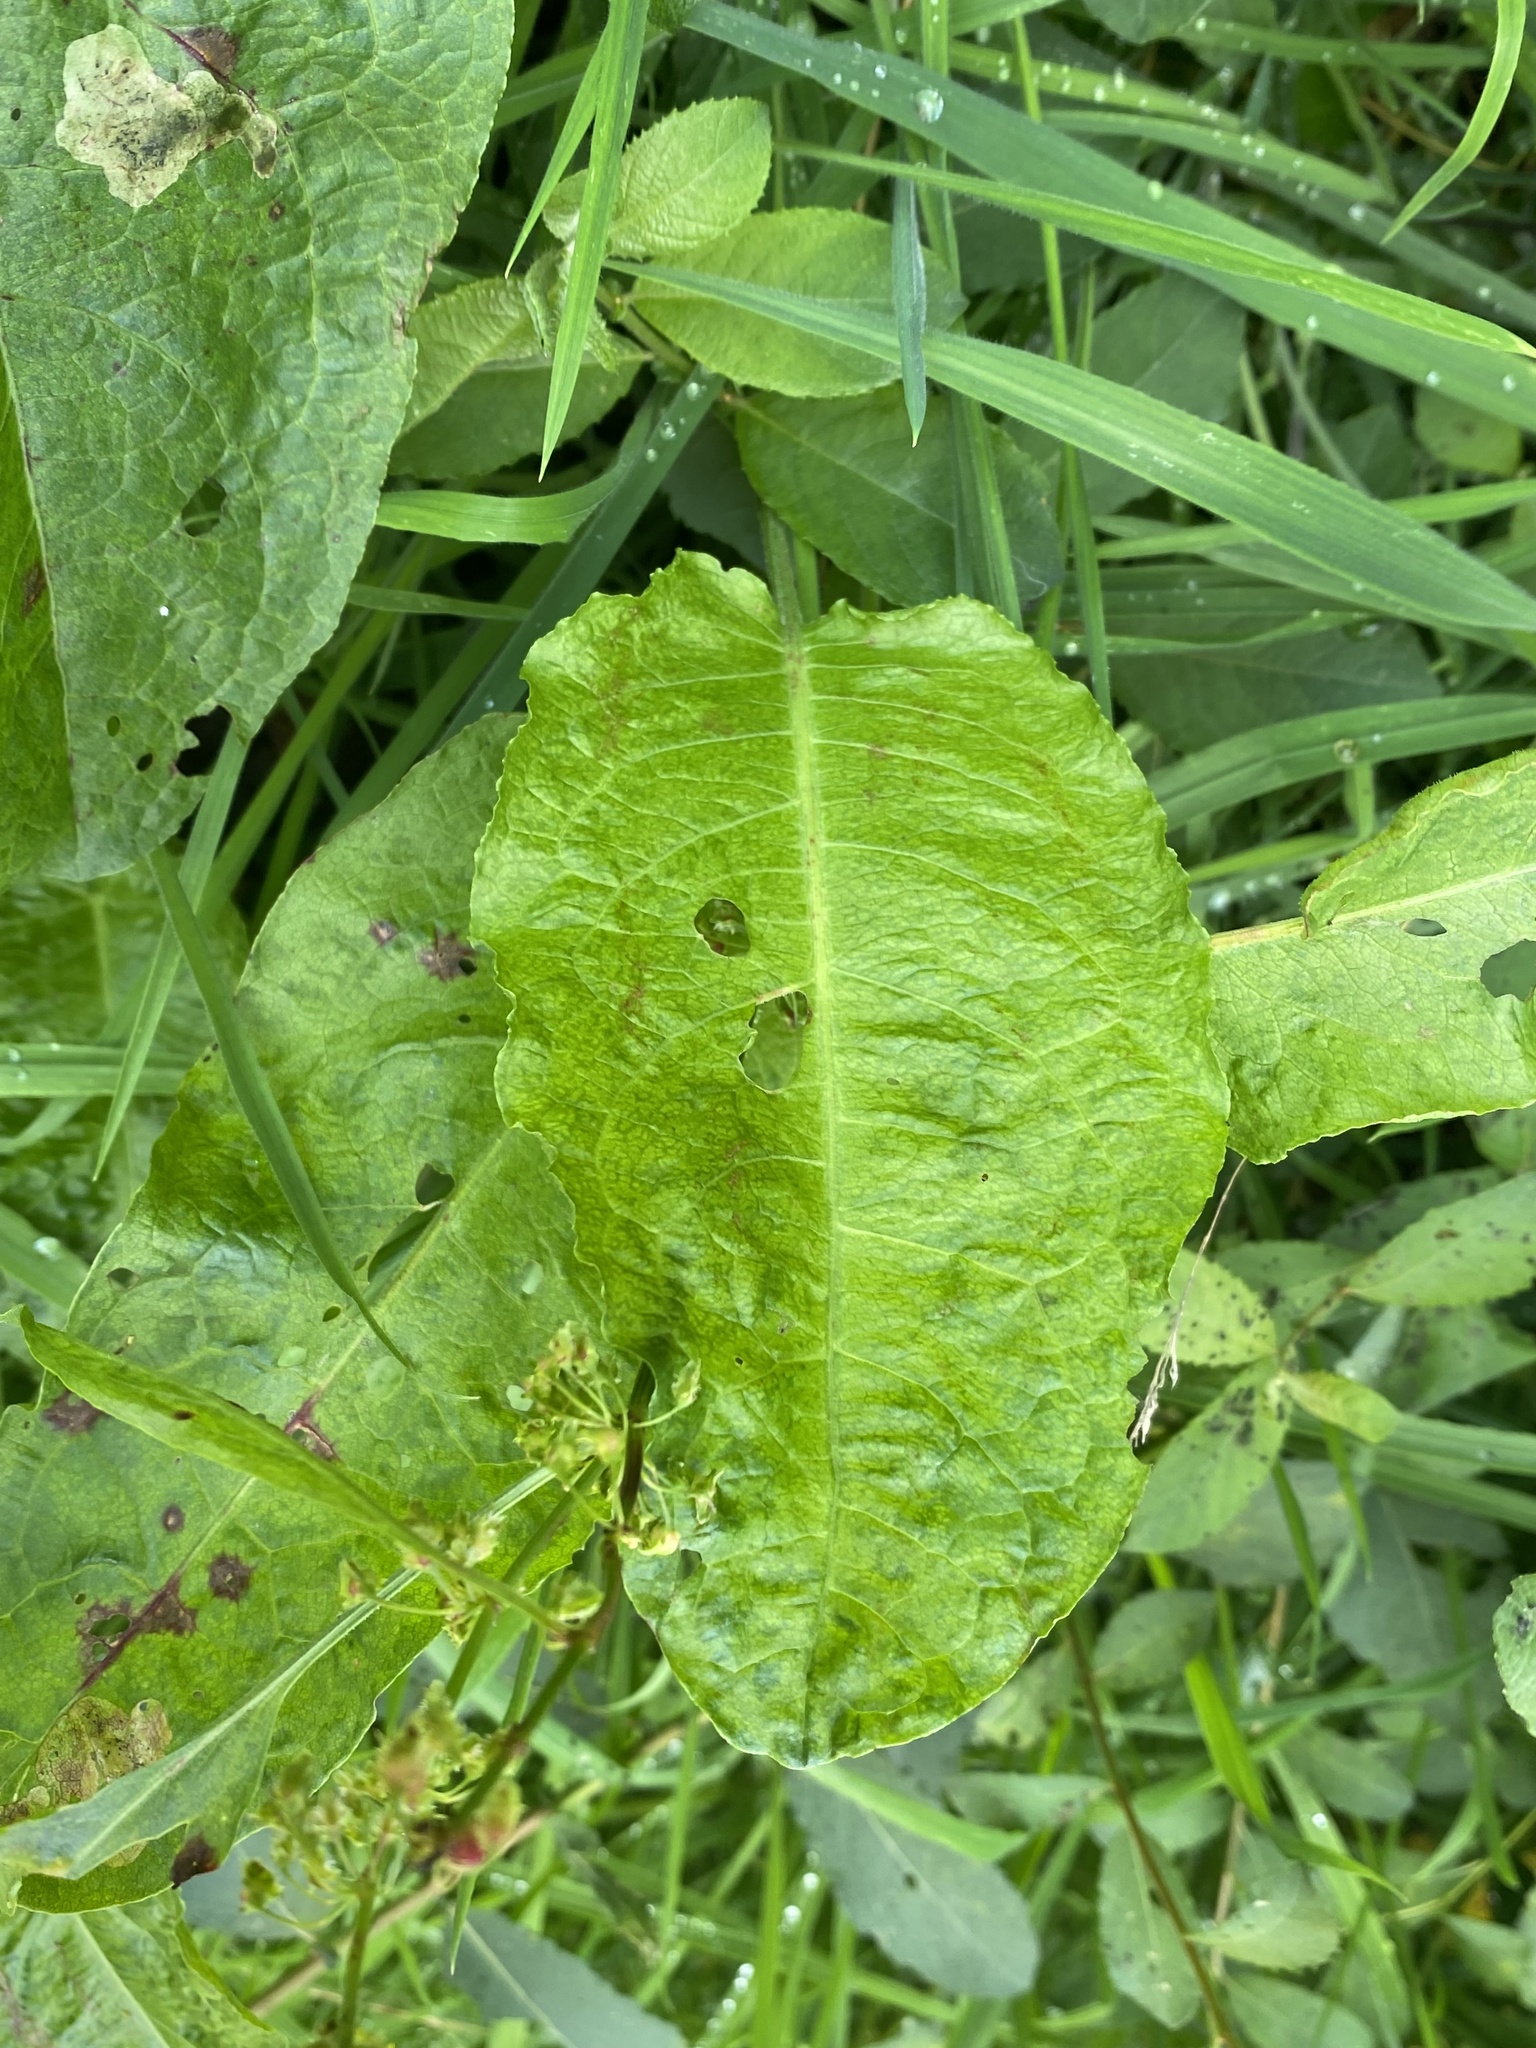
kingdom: Plantae
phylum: Tracheophyta
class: Magnoliopsida
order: Caryophyllales
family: Polygonaceae
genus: Rumex
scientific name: Rumex obtusifolius
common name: Bitter dock
